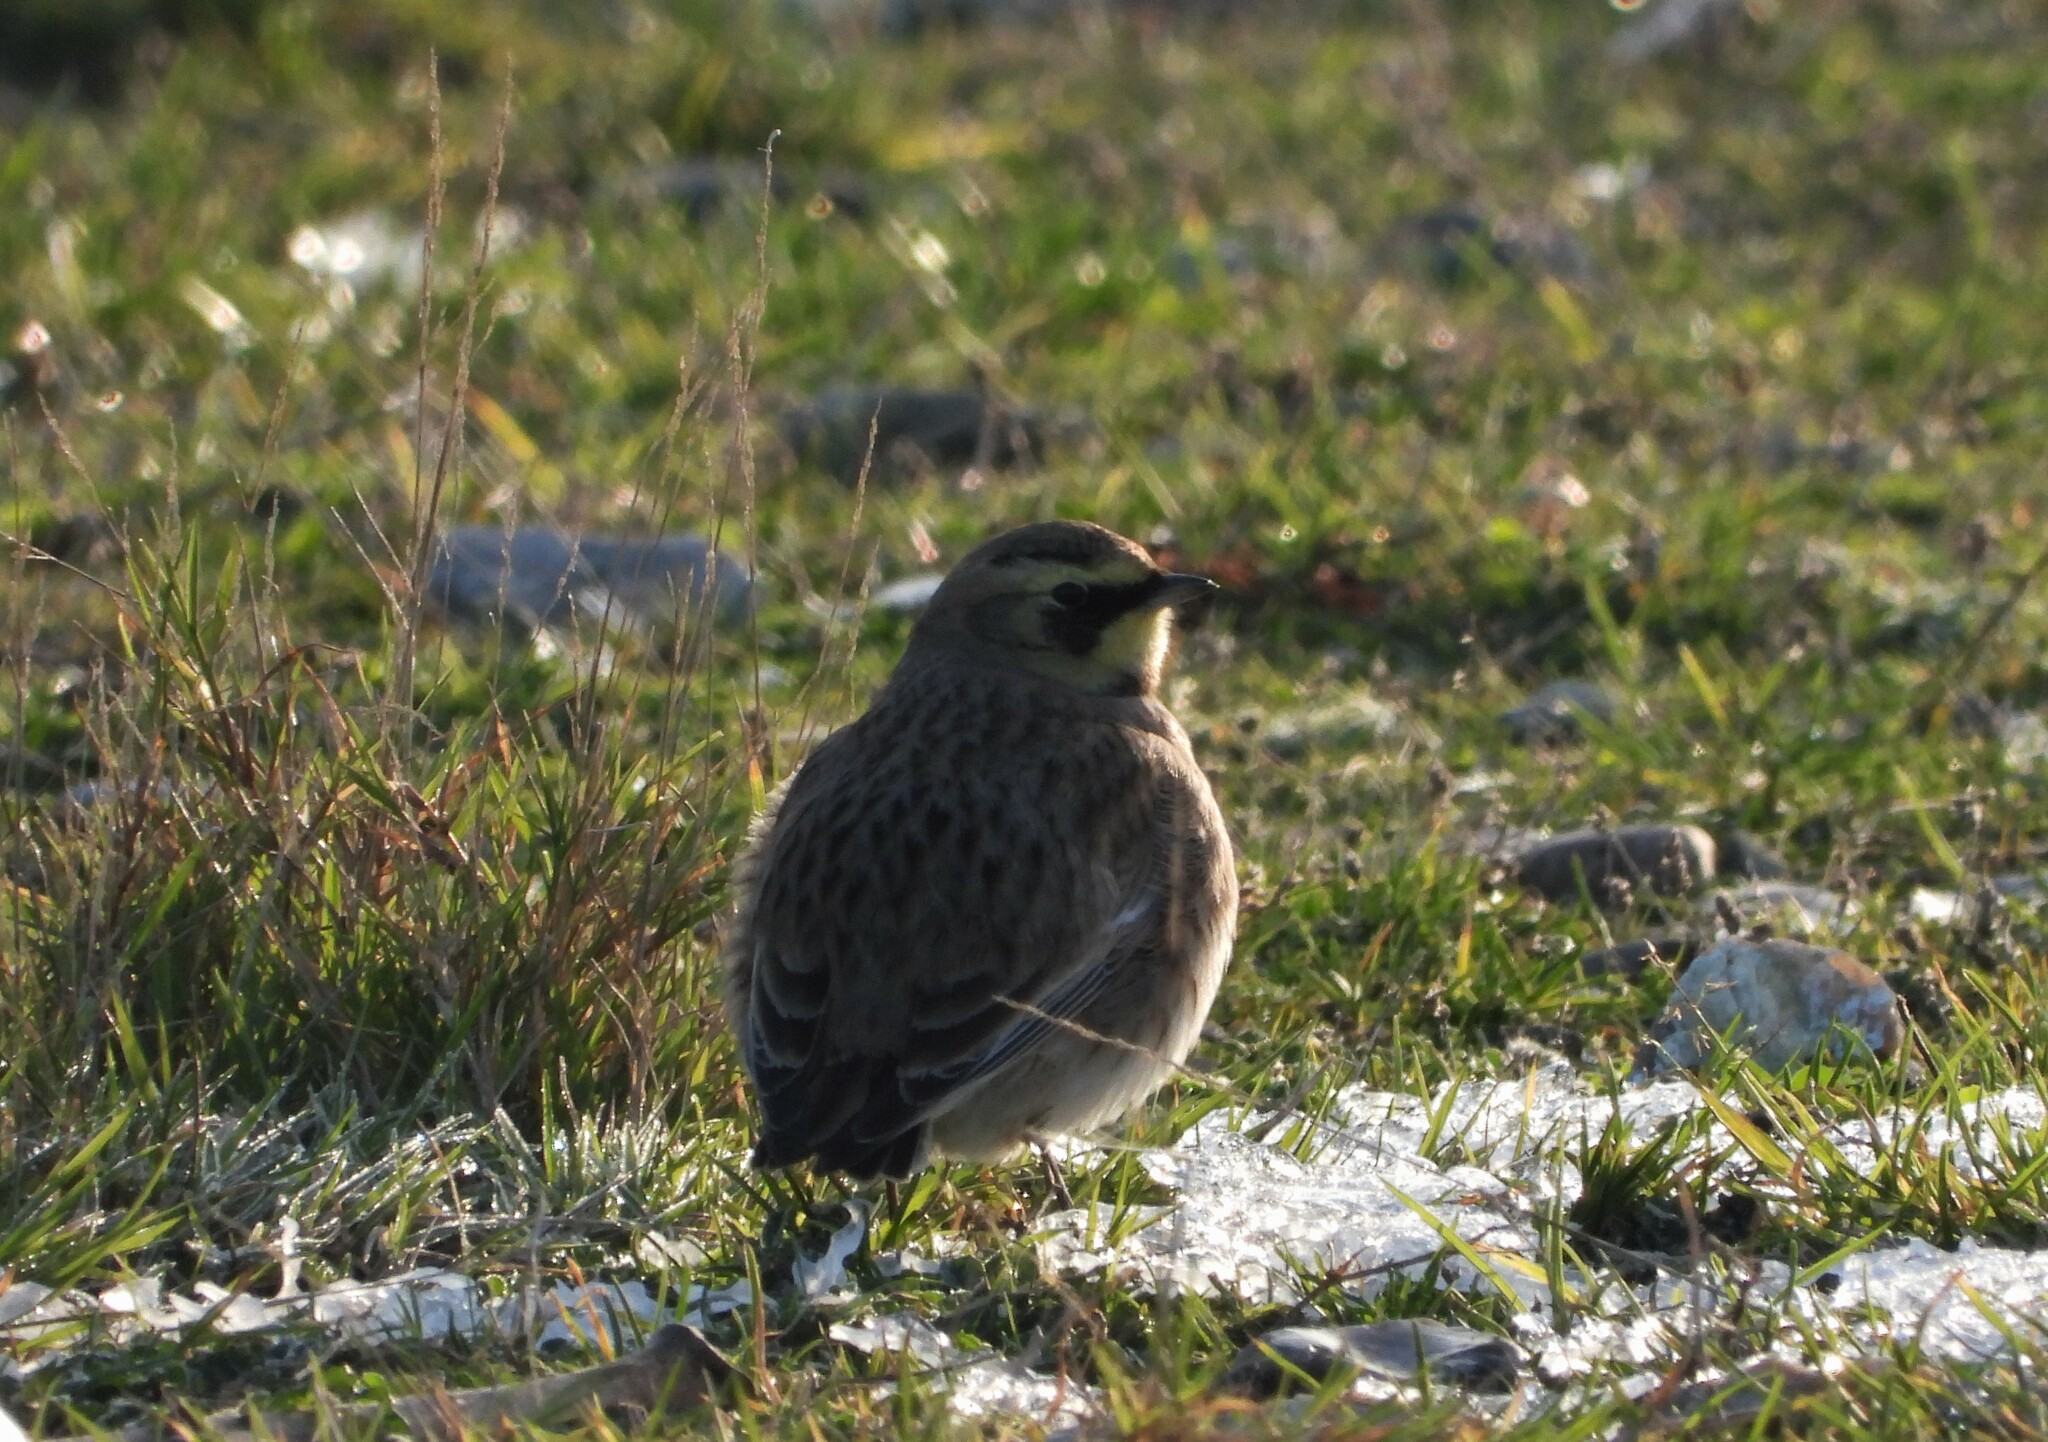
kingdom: Animalia
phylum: Chordata
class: Aves
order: Passeriformes
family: Alaudidae
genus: Eremophila
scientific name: Eremophila alpestris
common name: Horned lark
